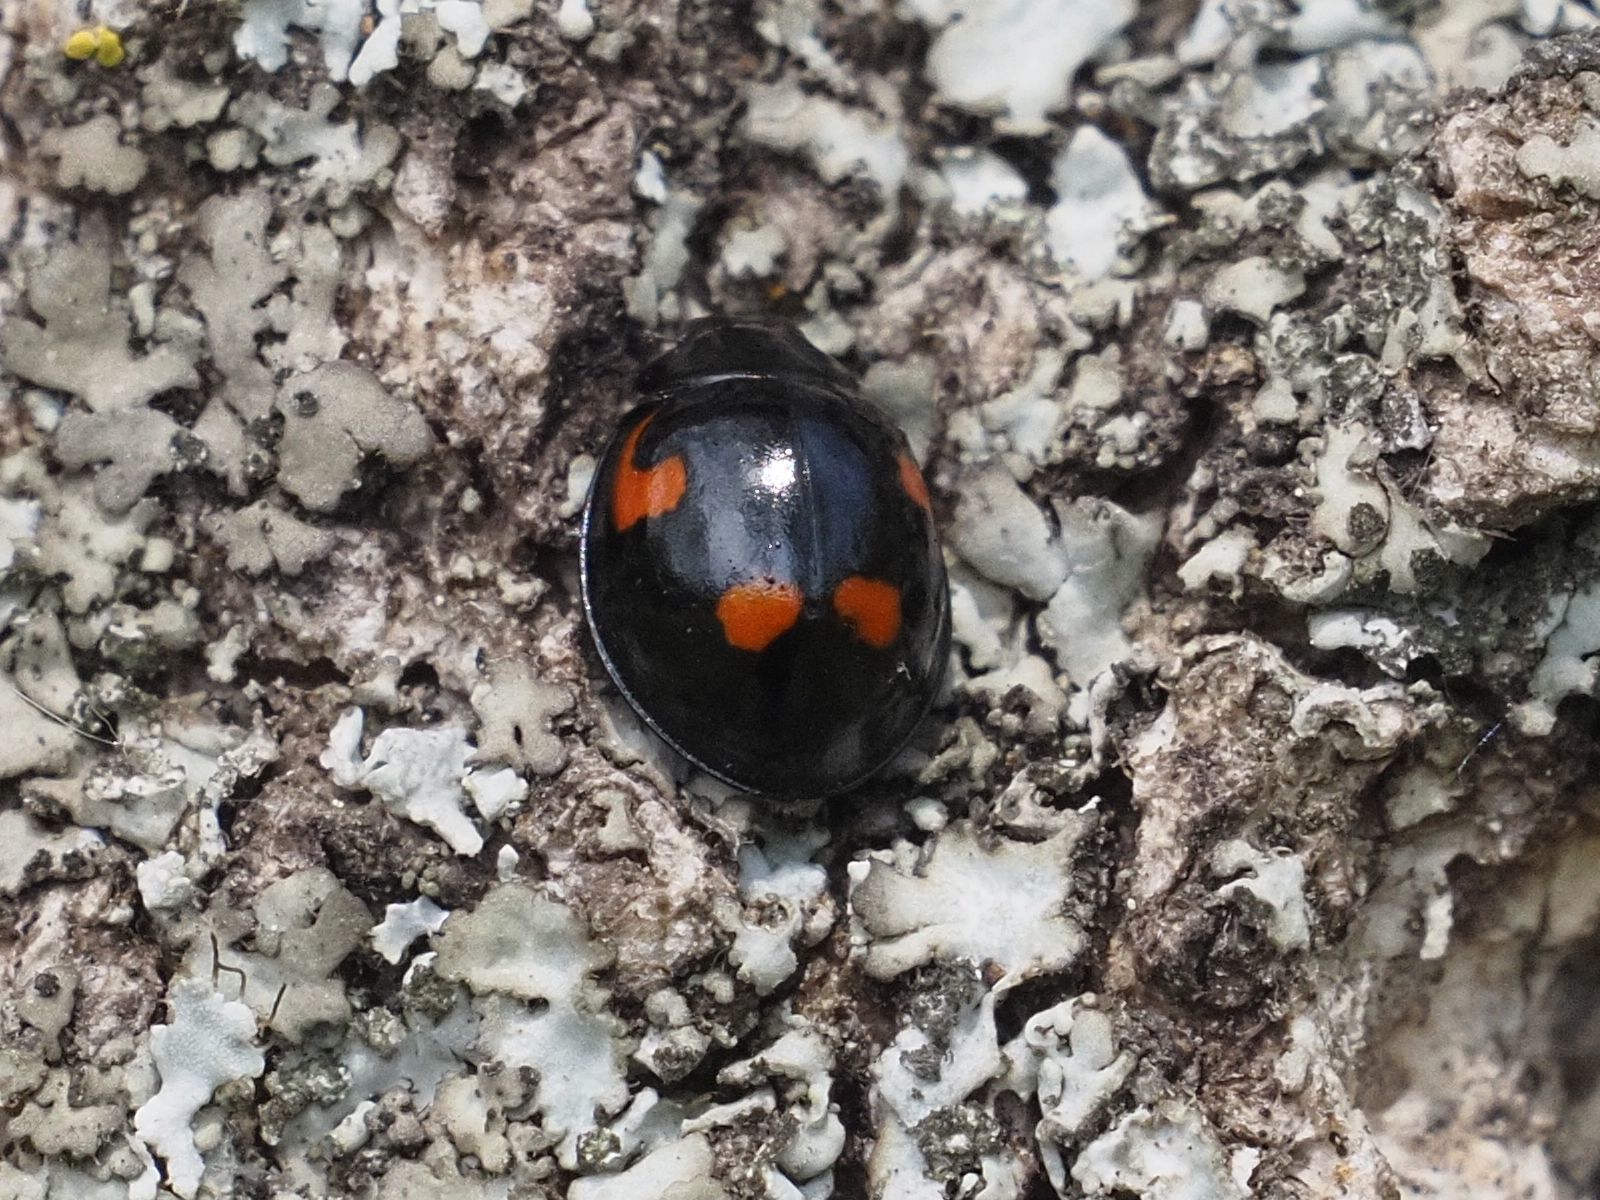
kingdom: Animalia
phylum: Arthropoda
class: Insecta
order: Coleoptera
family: Coccinellidae
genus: Brumus
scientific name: Brumus quadripustulatus
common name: Ladybird beetle
